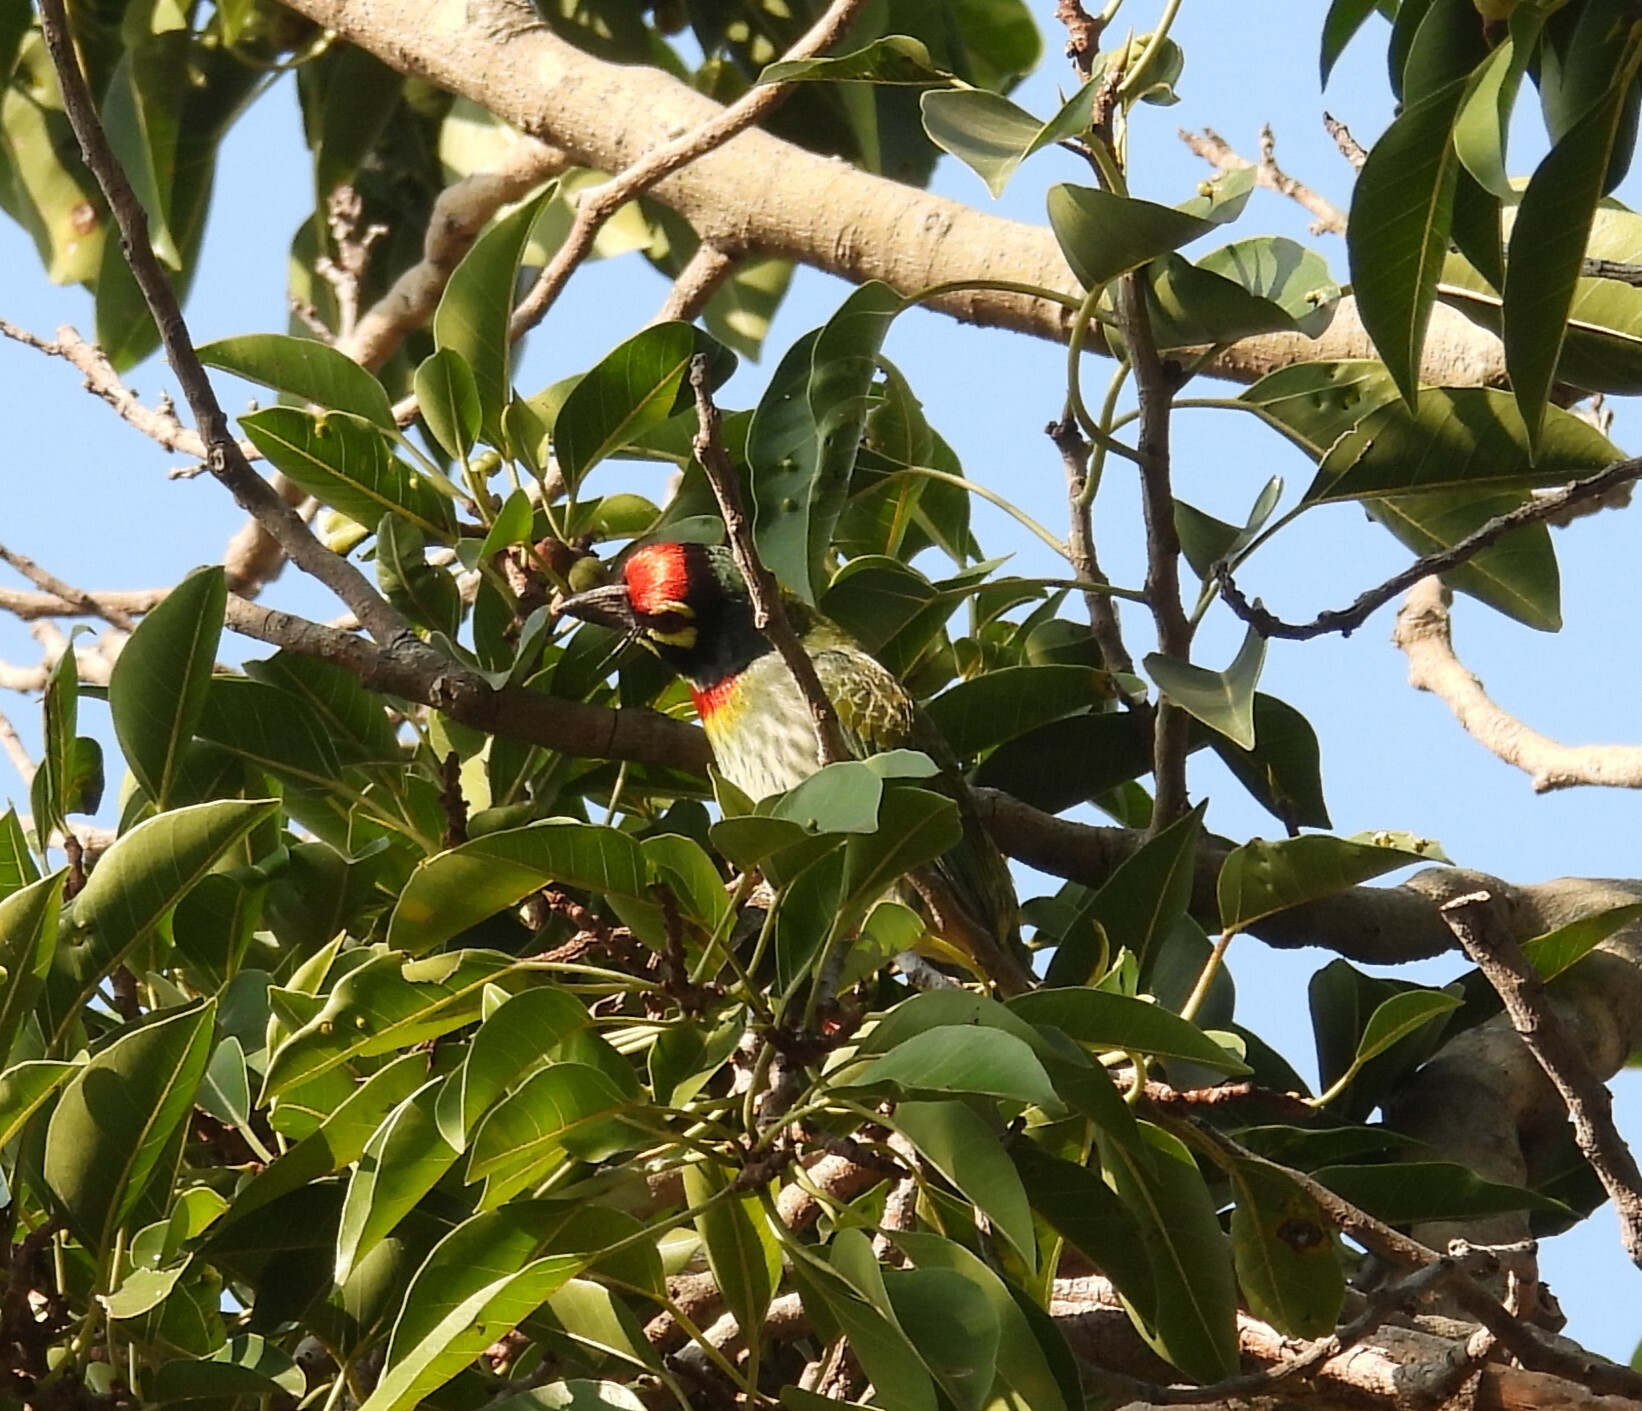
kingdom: Animalia
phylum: Chordata
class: Aves
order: Piciformes
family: Megalaimidae
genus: Psilopogon
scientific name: Psilopogon haemacephalus
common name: Coppersmith barbet
